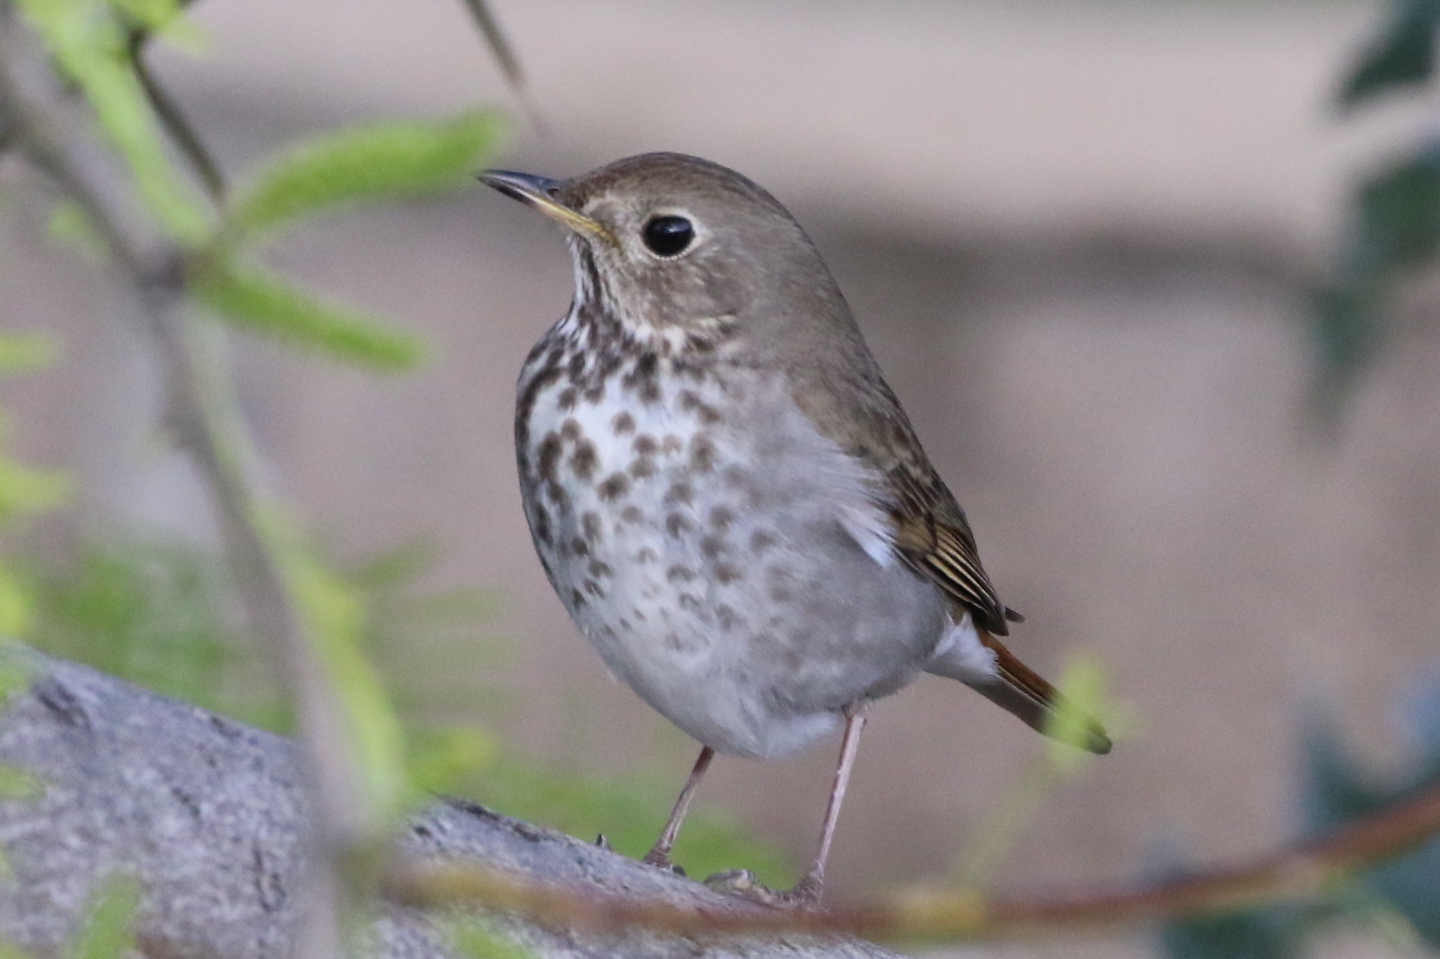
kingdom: Animalia
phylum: Chordata
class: Aves
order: Passeriformes
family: Turdidae
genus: Catharus
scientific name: Catharus guttatus
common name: Hermit thrush
